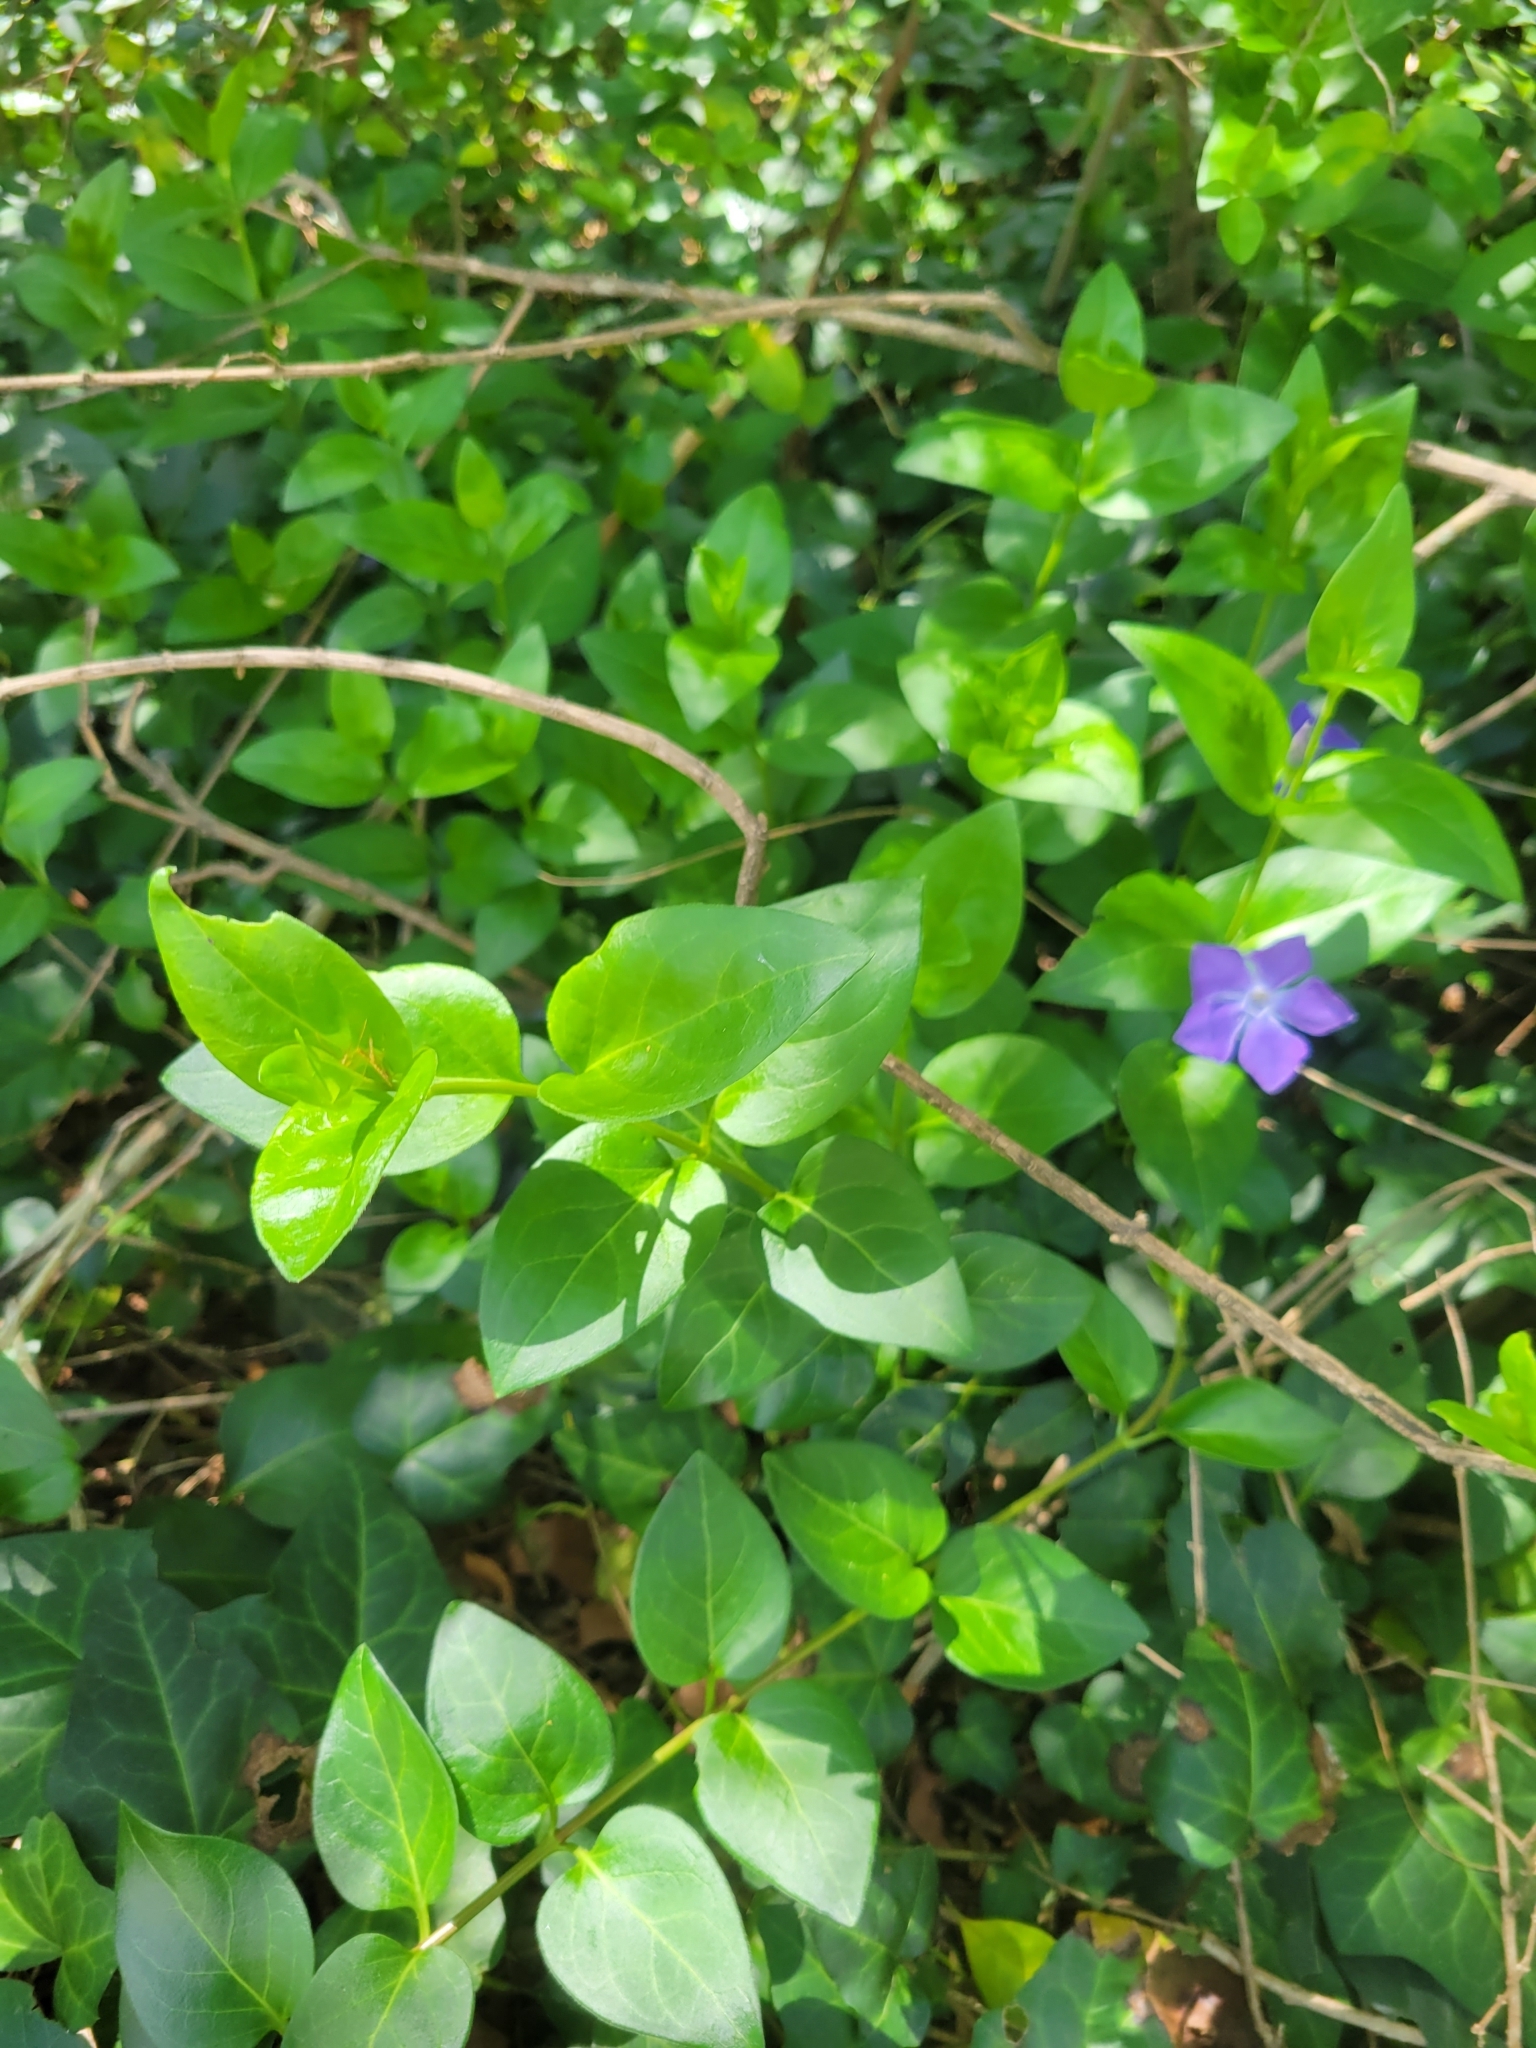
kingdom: Plantae
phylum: Tracheophyta
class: Magnoliopsida
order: Gentianales
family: Apocynaceae
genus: Vinca
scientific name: Vinca major
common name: Greater periwinkle
